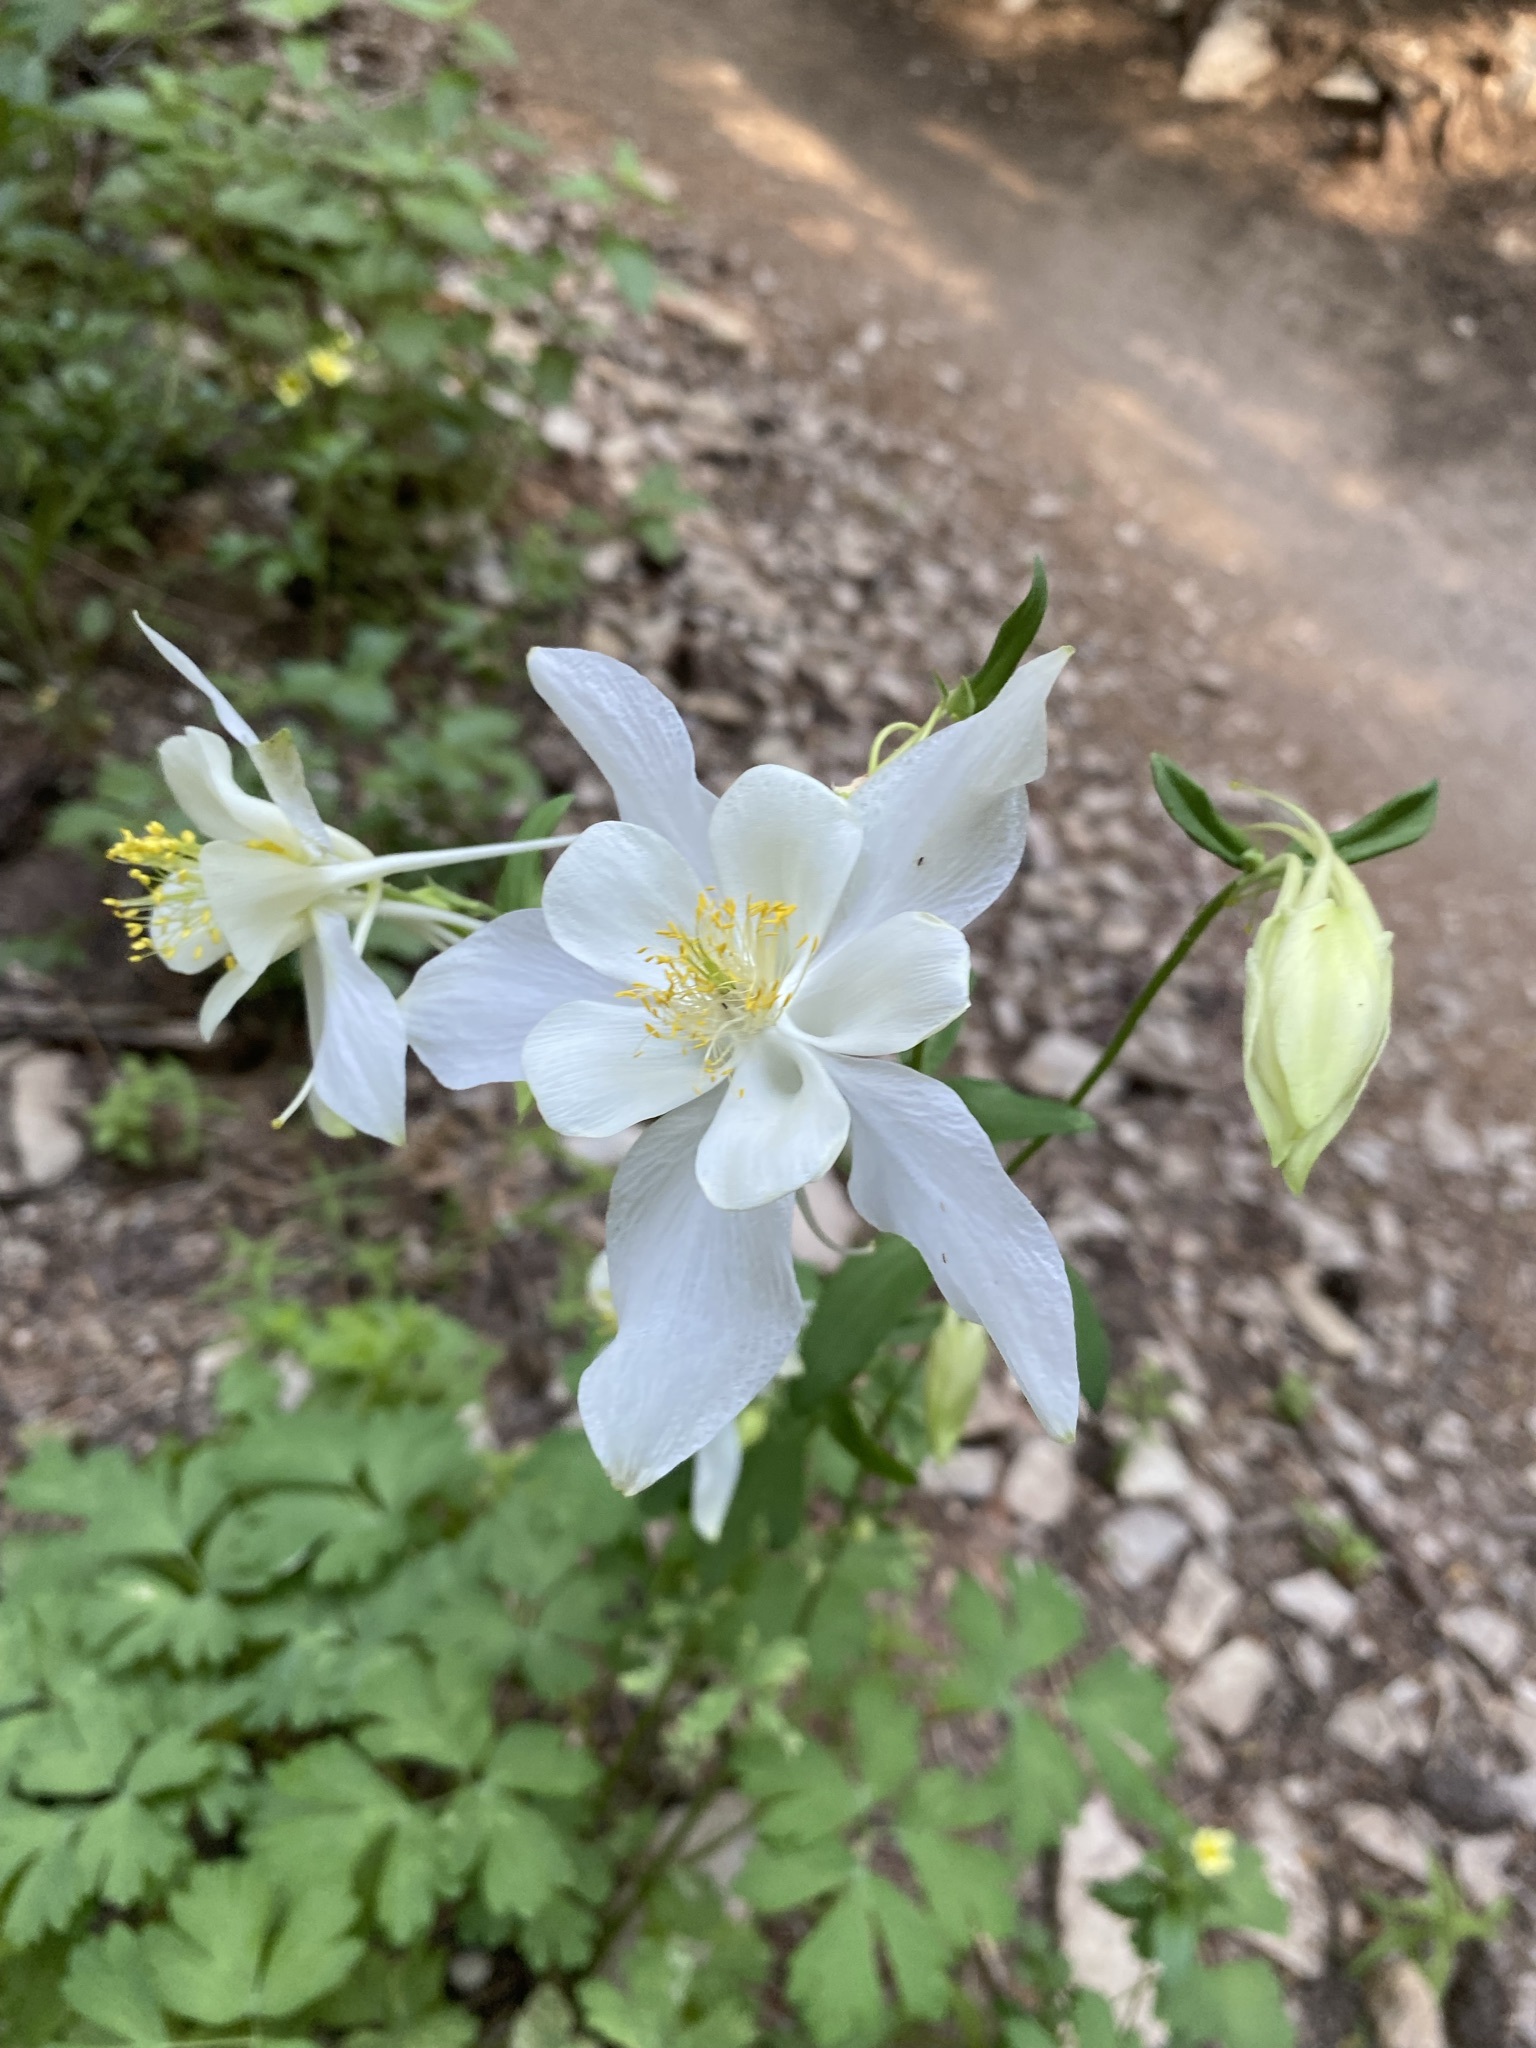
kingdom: Plantae
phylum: Tracheophyta
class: Magnoliopsida
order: Ranunculales
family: Ranunculaceae
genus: Aquilegia
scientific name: Aquilegia coerulea
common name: Rocky mountain columbine
